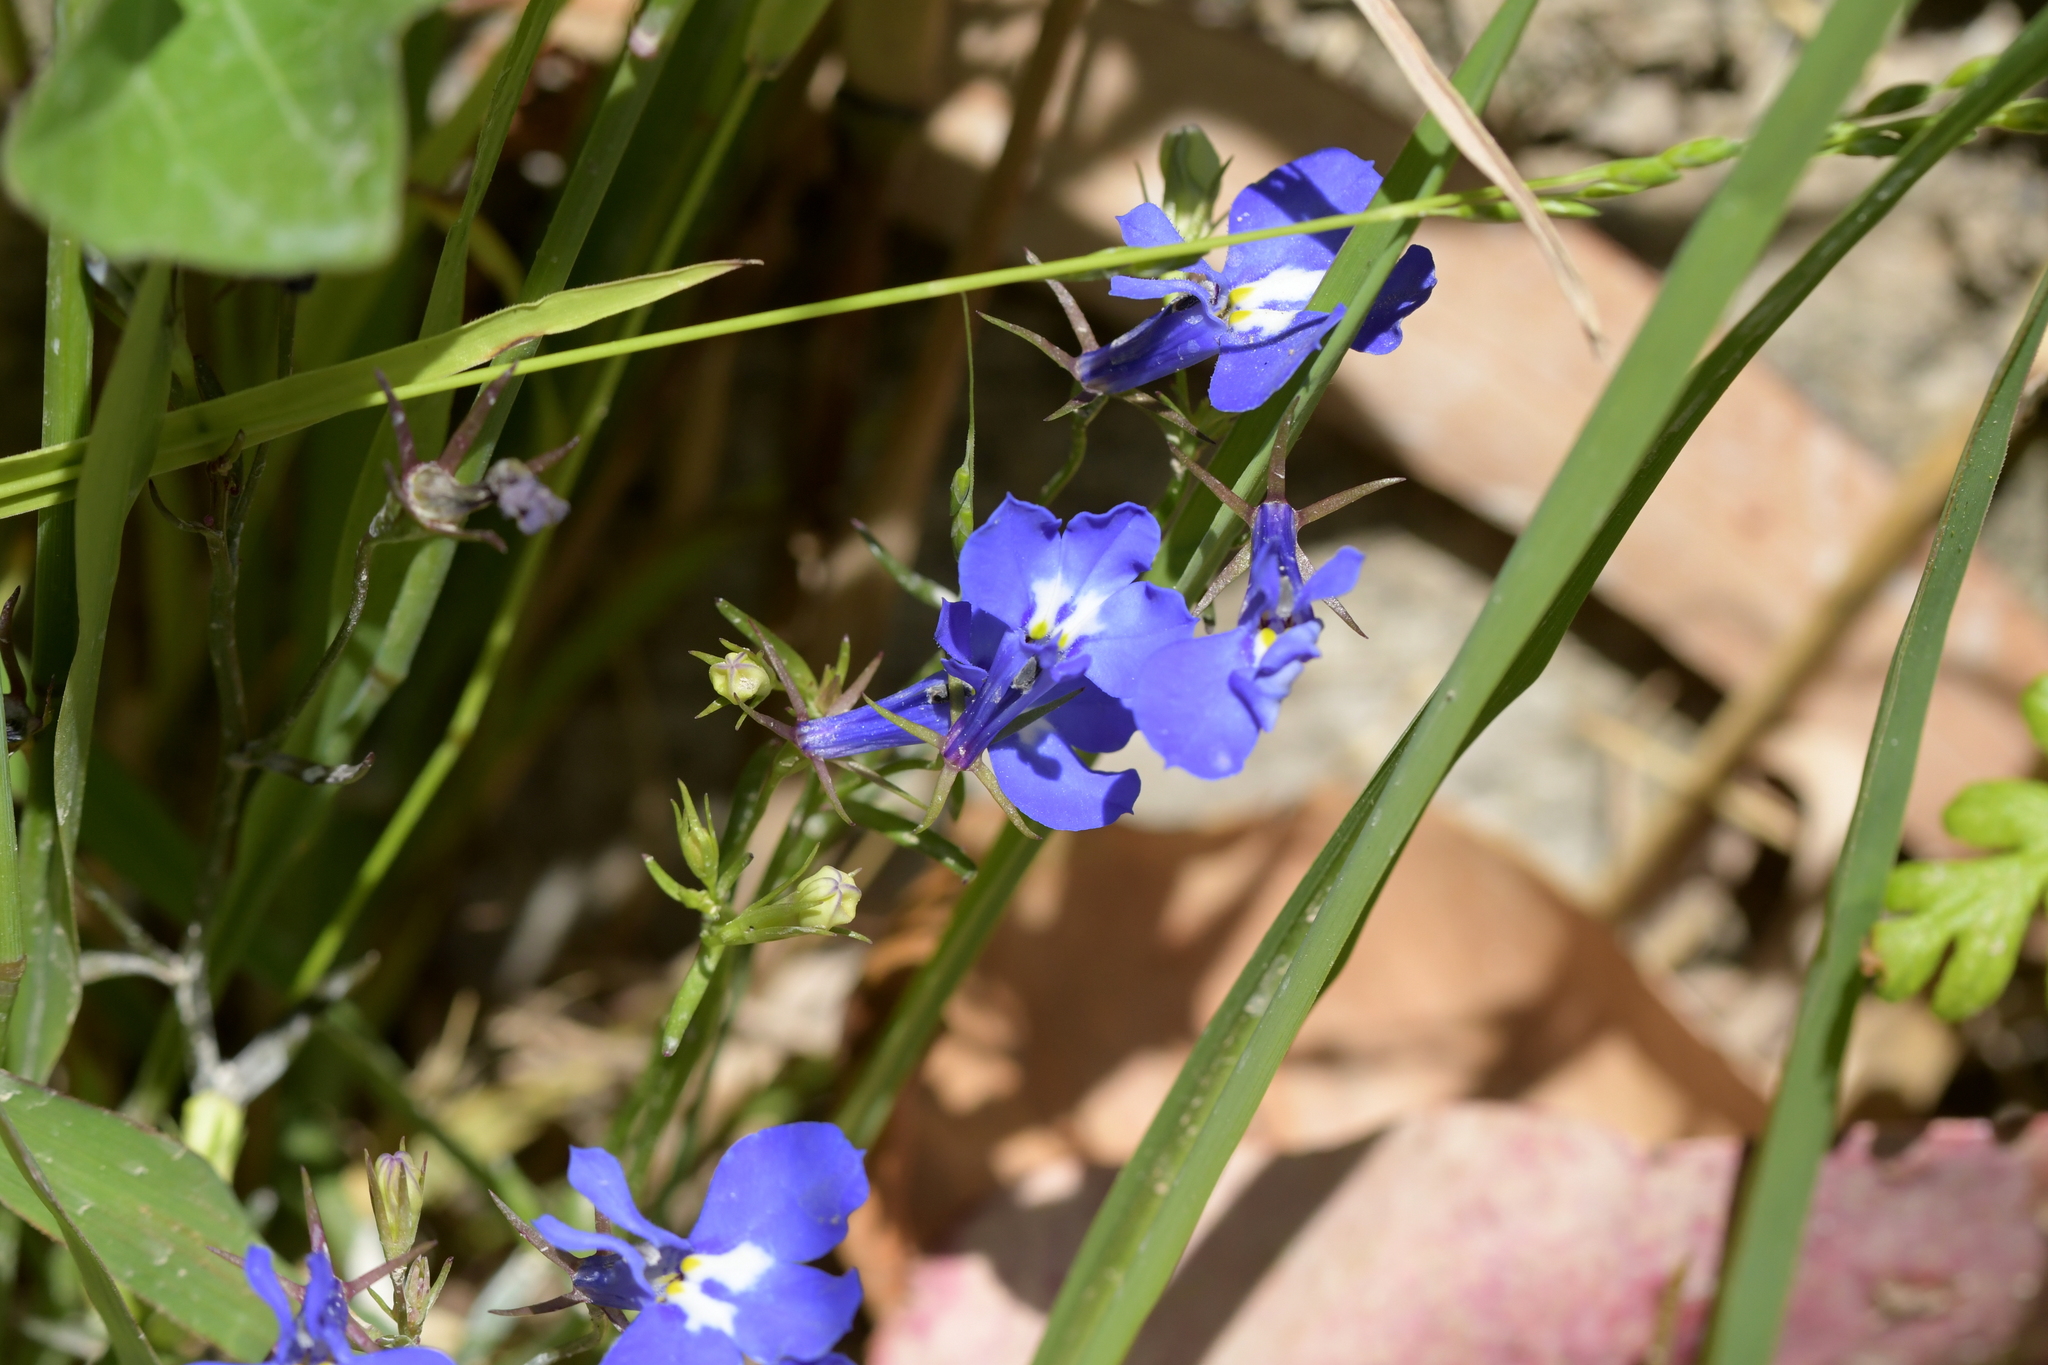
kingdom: Plantae
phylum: Tracheophyta
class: Magnoliopsida
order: Asterales
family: Campanulaceae
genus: Lobelia
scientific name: Lobelia erinus
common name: Edging lobelia
